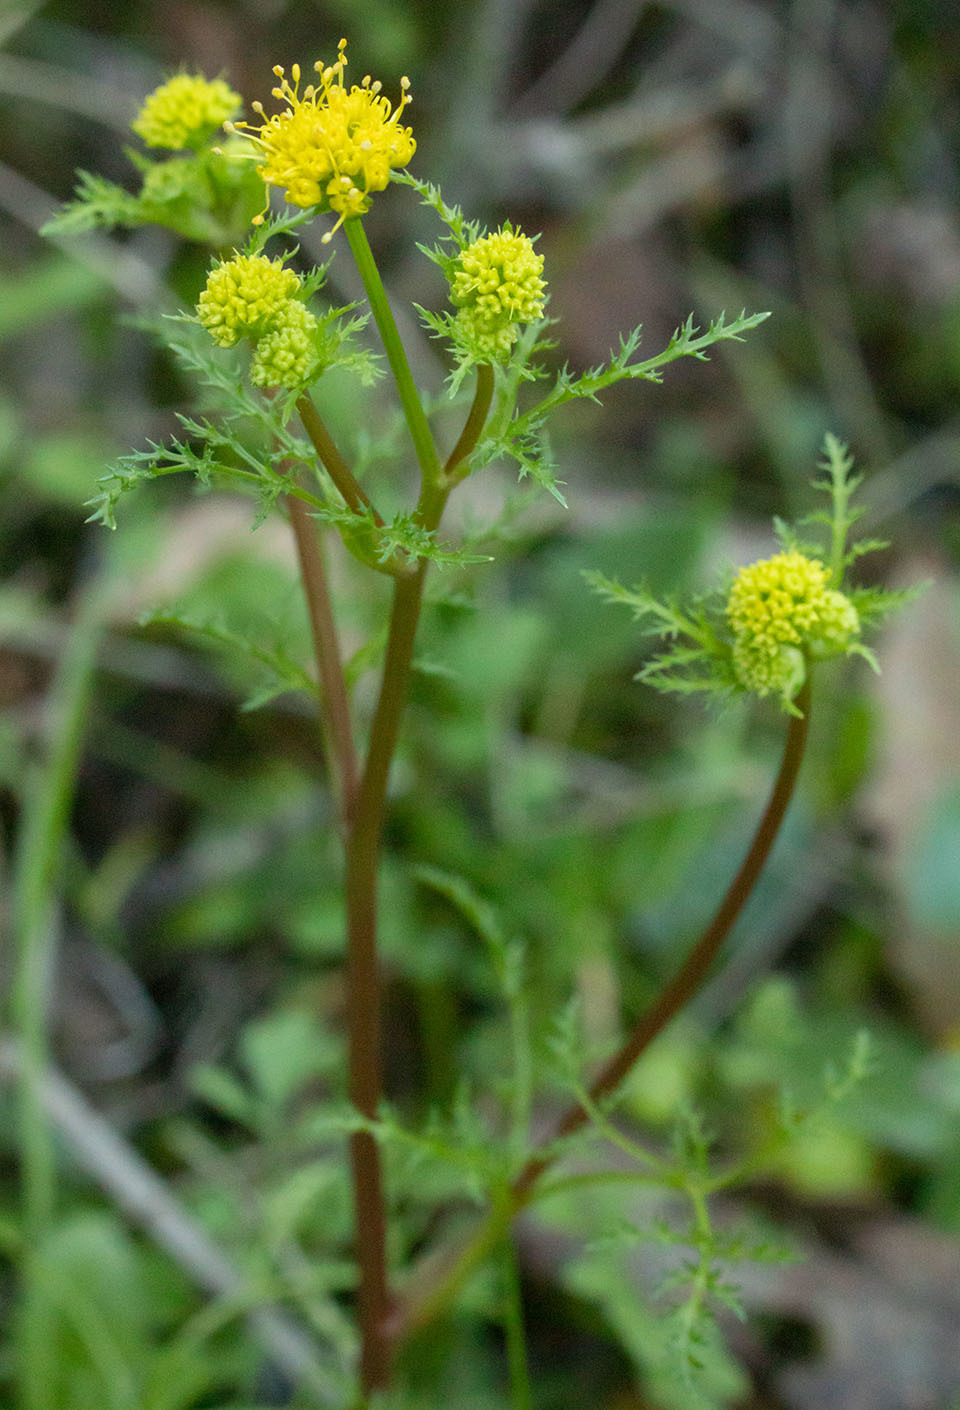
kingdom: Plantae
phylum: Tracheophyta
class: Magnoliopsida
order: Apiales
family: Apiaceae
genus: Sanicula
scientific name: Sanicula tuberosa
